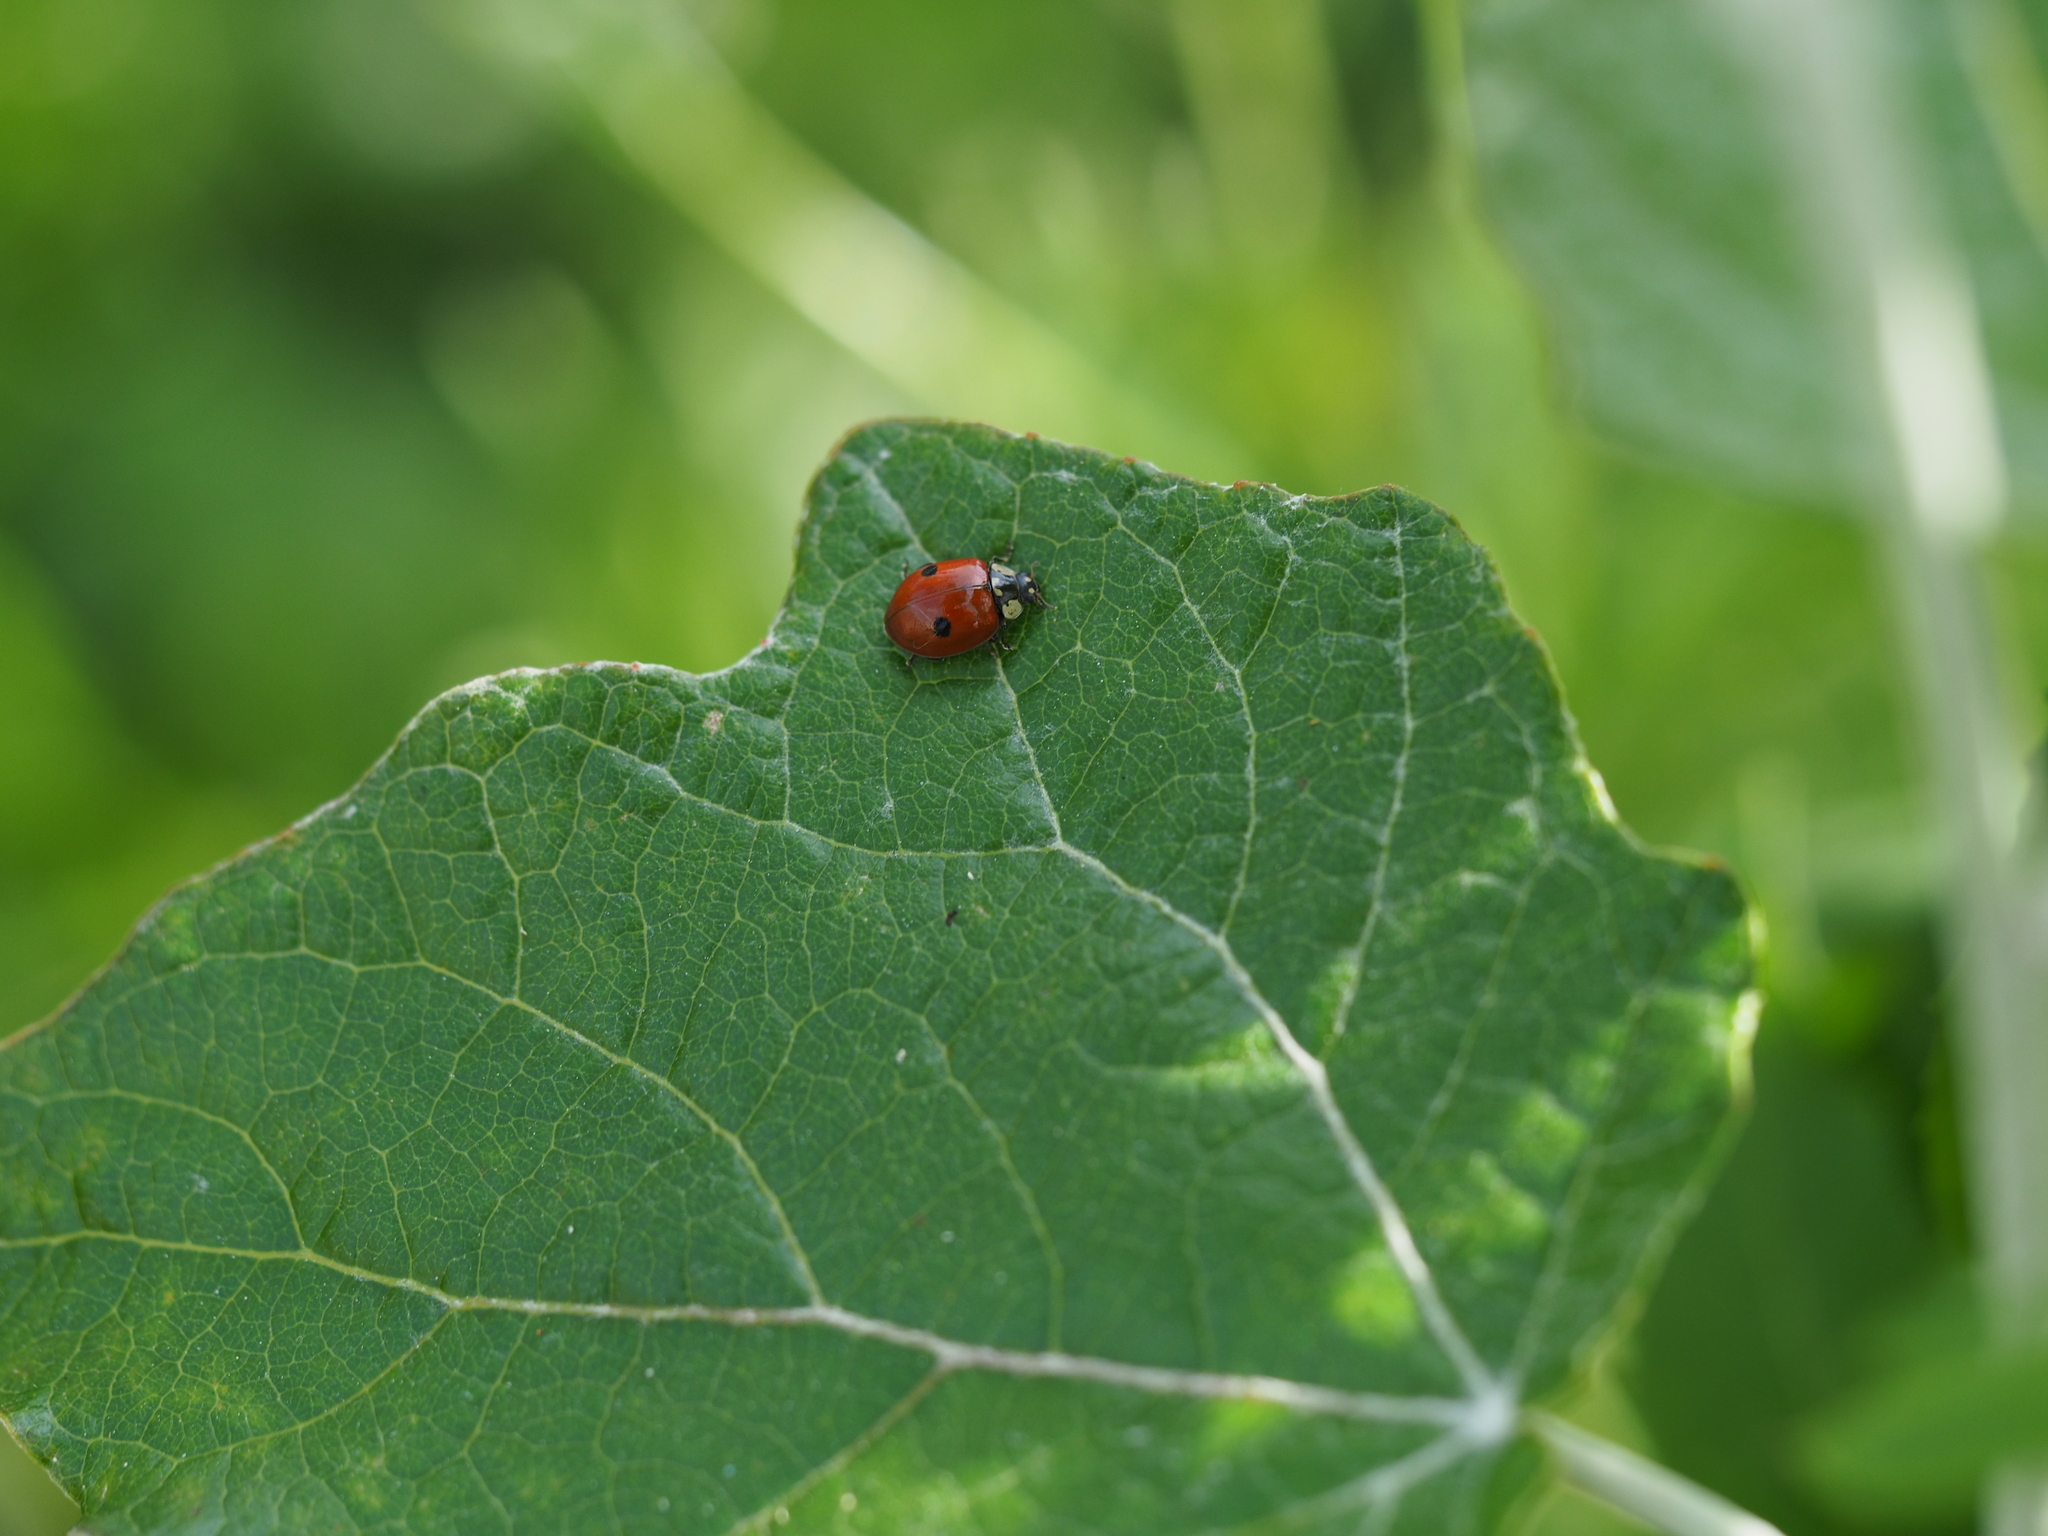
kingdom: Animalia
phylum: Arthropoda
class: Insecta
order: Coleoptera
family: Coccinellidae
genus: Adalia
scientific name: Adalia bipunctata
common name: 2-spot ladybird
